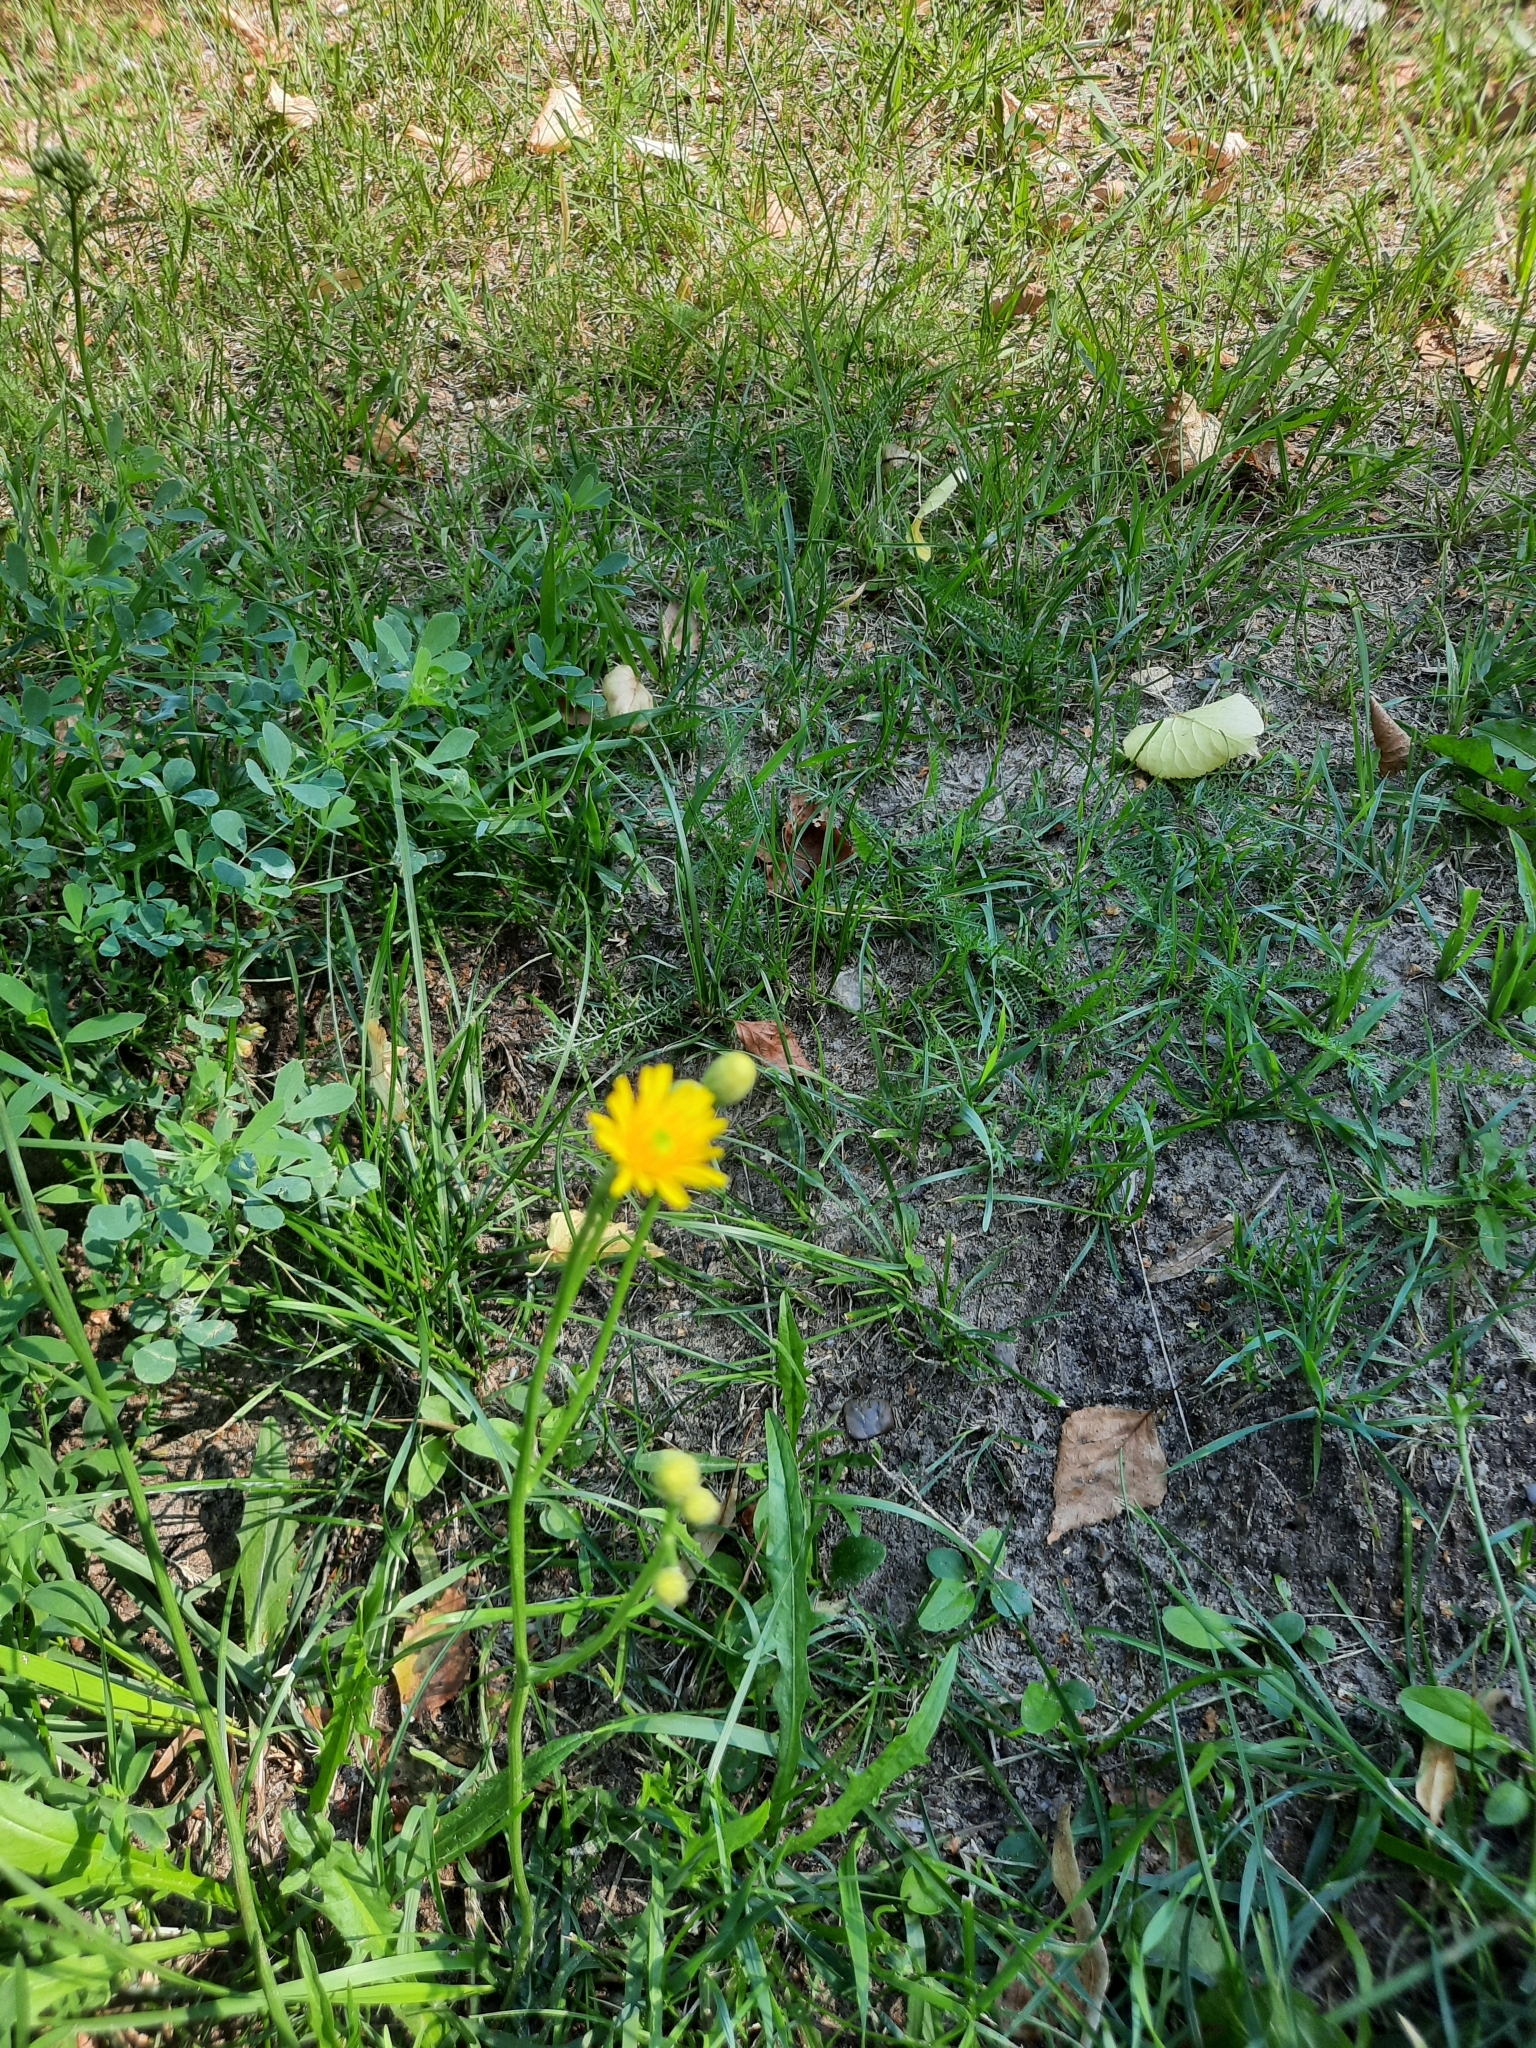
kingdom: Plantae
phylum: Tracheophyta
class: Magnoliopsida
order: Asterales
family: Asteraceae
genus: Scorzoneroides
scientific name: Scorzoneroides autumnalis
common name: Autumn hawkbit
